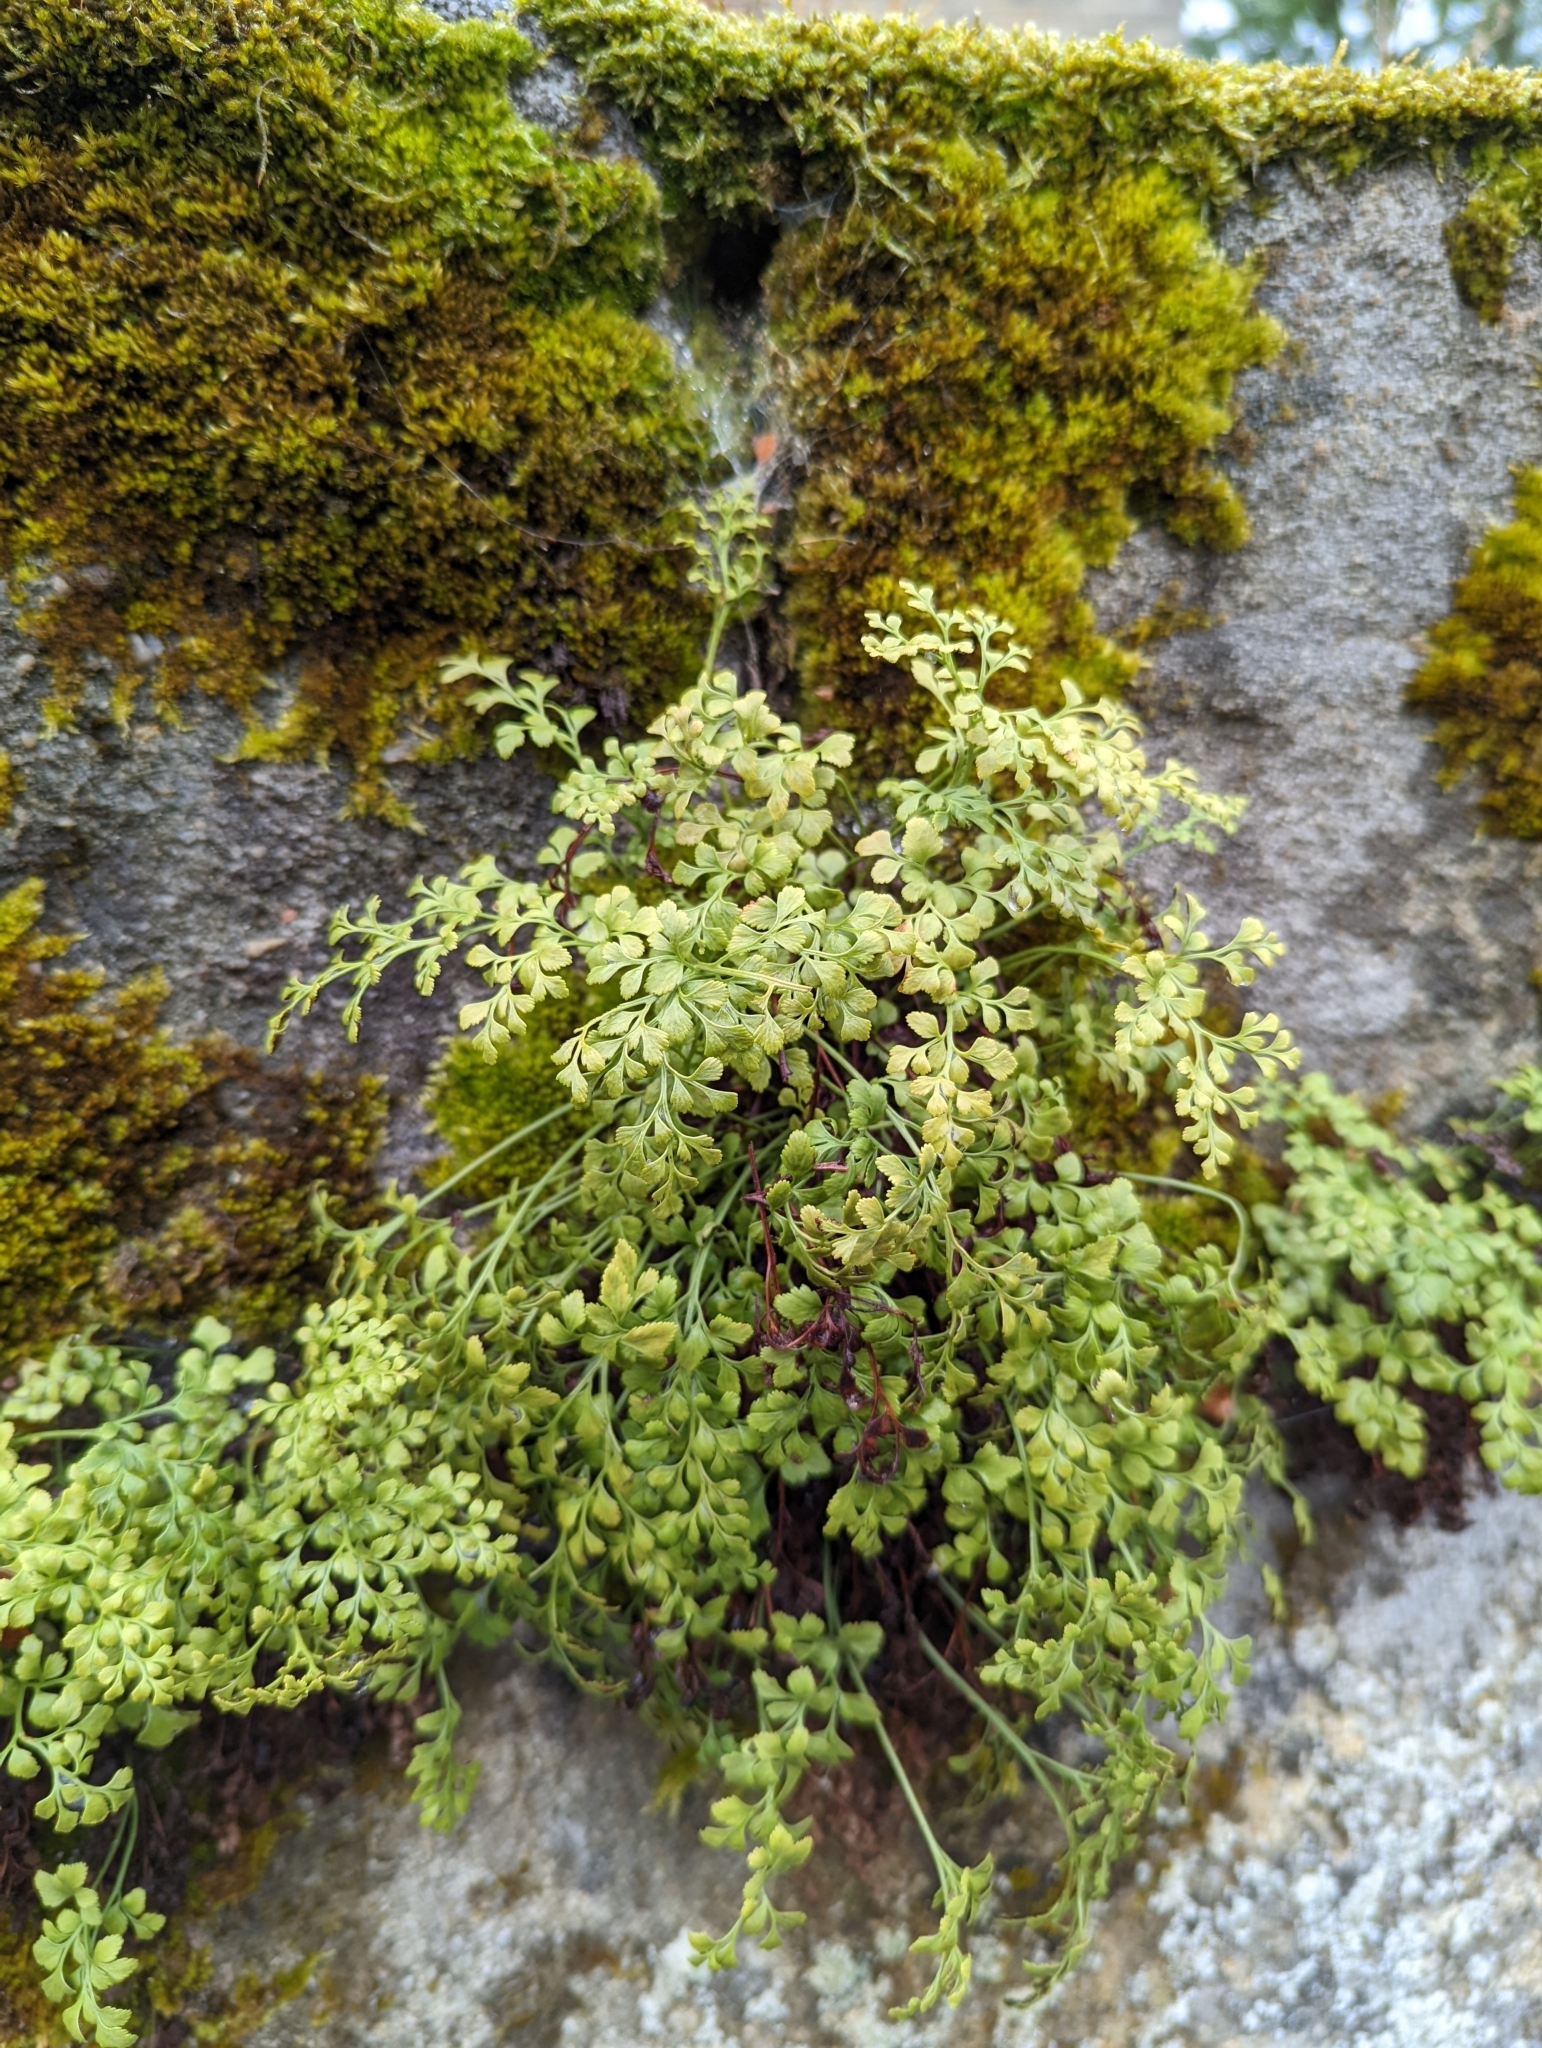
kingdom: Plantae
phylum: Tracheophyta
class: Polypodiopsida
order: Polypodiales
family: Aspleniaceae
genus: Asplenium
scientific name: Asplenium ruta-muraria
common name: Wall-rue
